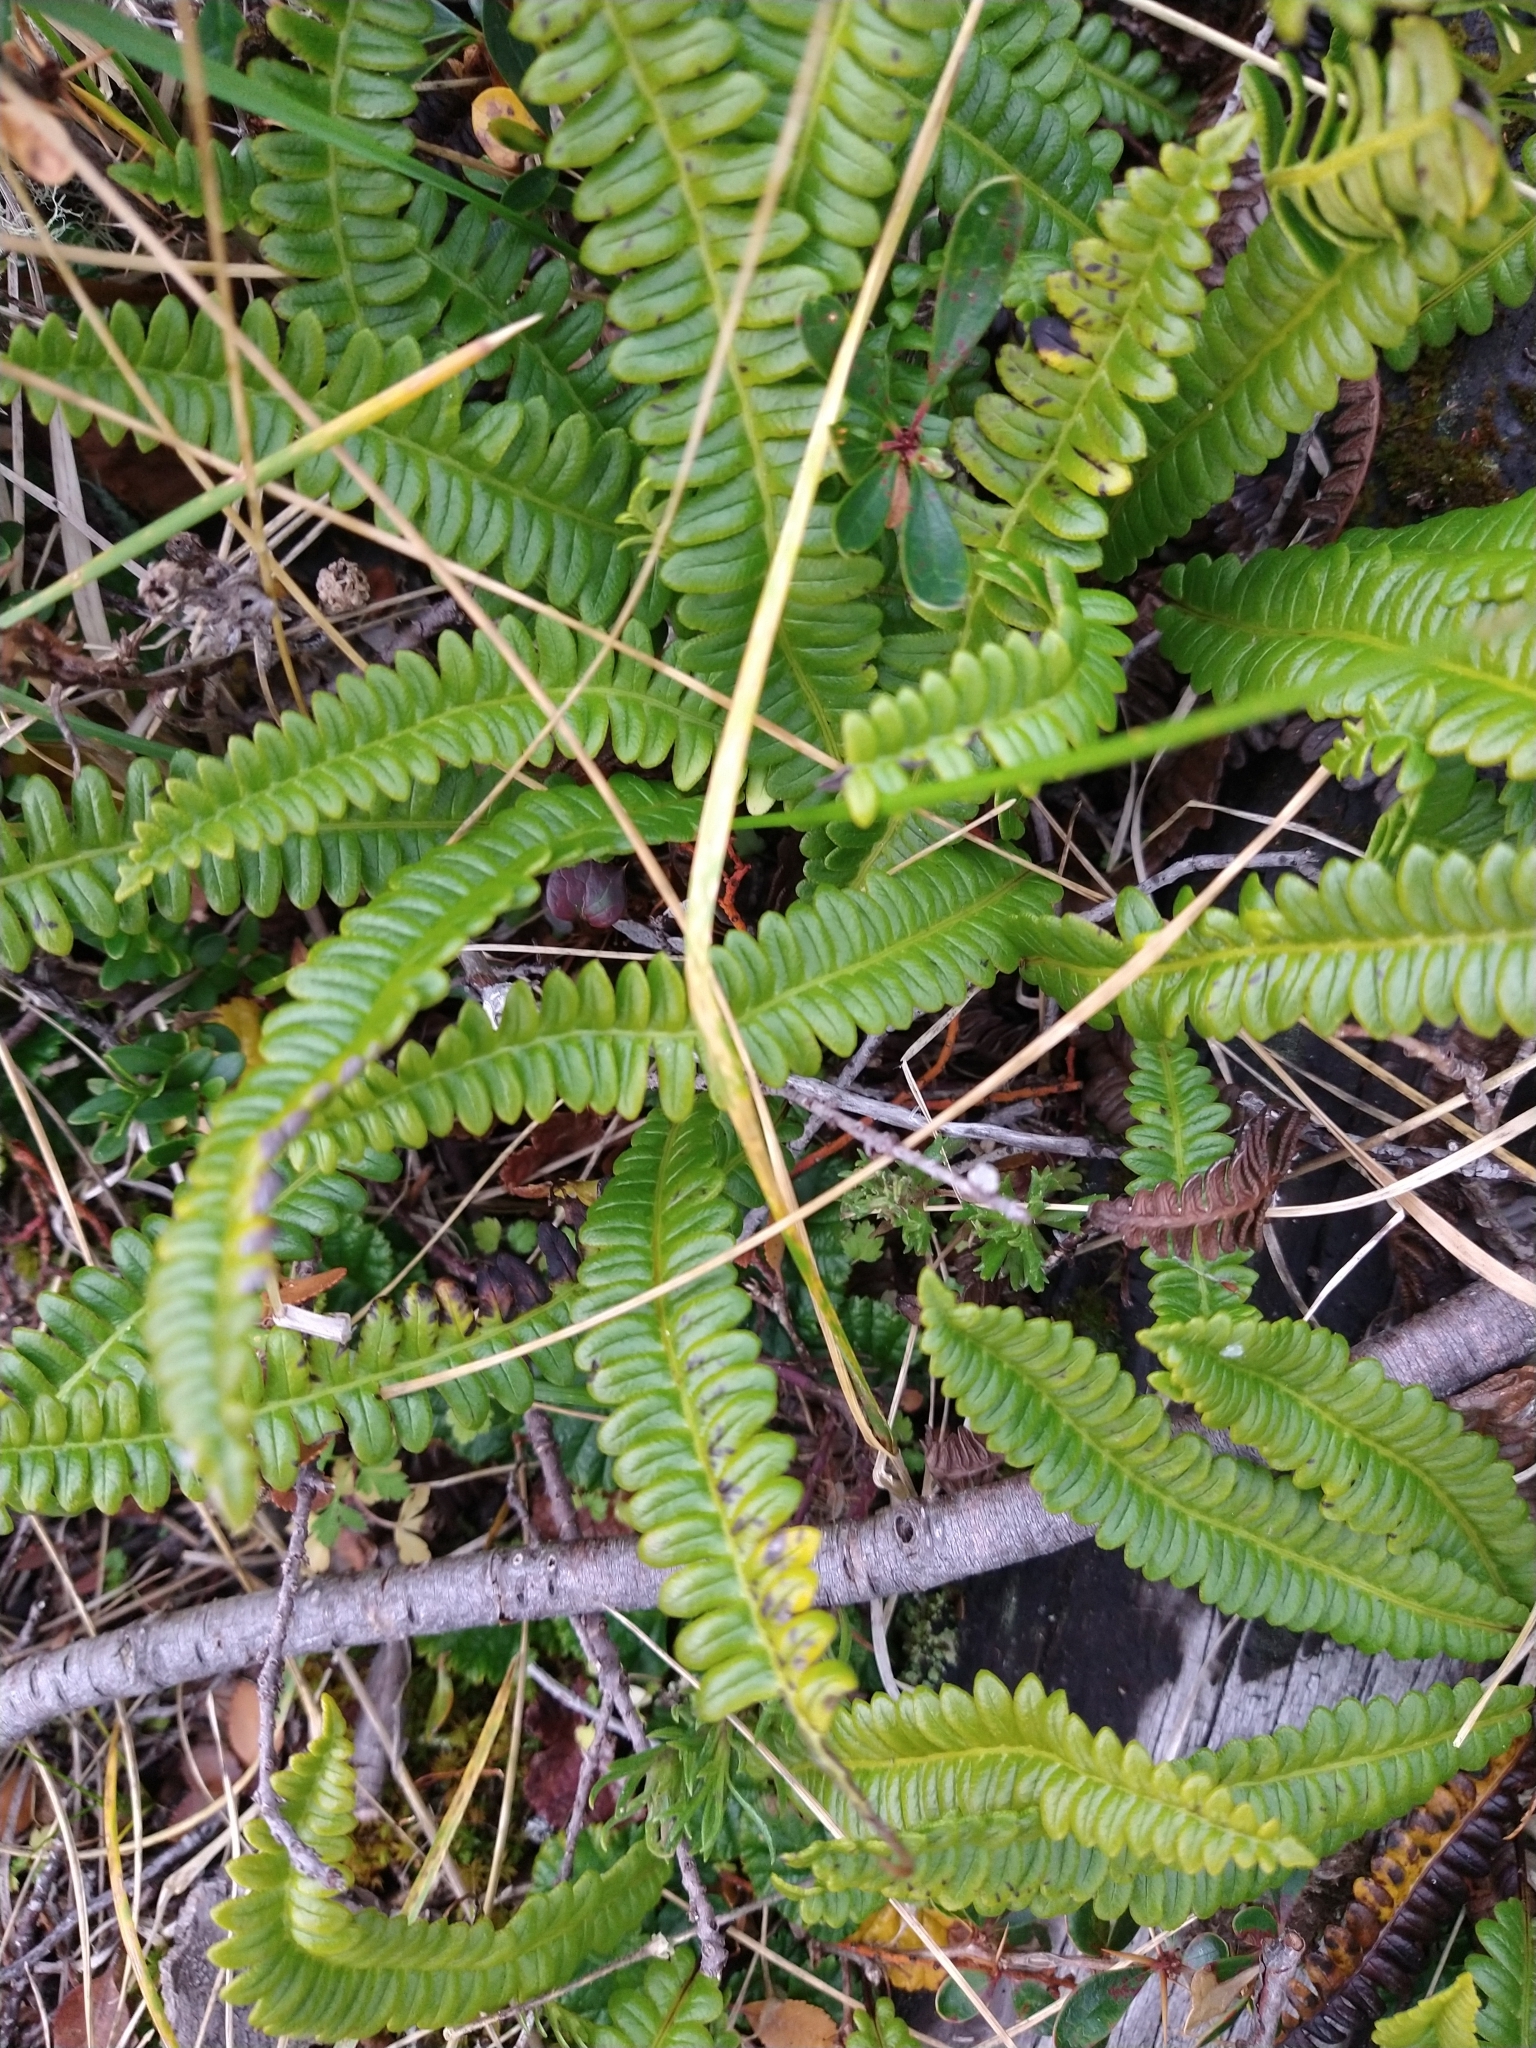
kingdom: Plantae
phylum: Tracheophyta
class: Polypodiopsida
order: Polypodiales
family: Blechnaceae
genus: Austroblechnum
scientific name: Austroblechnum penna-marina
